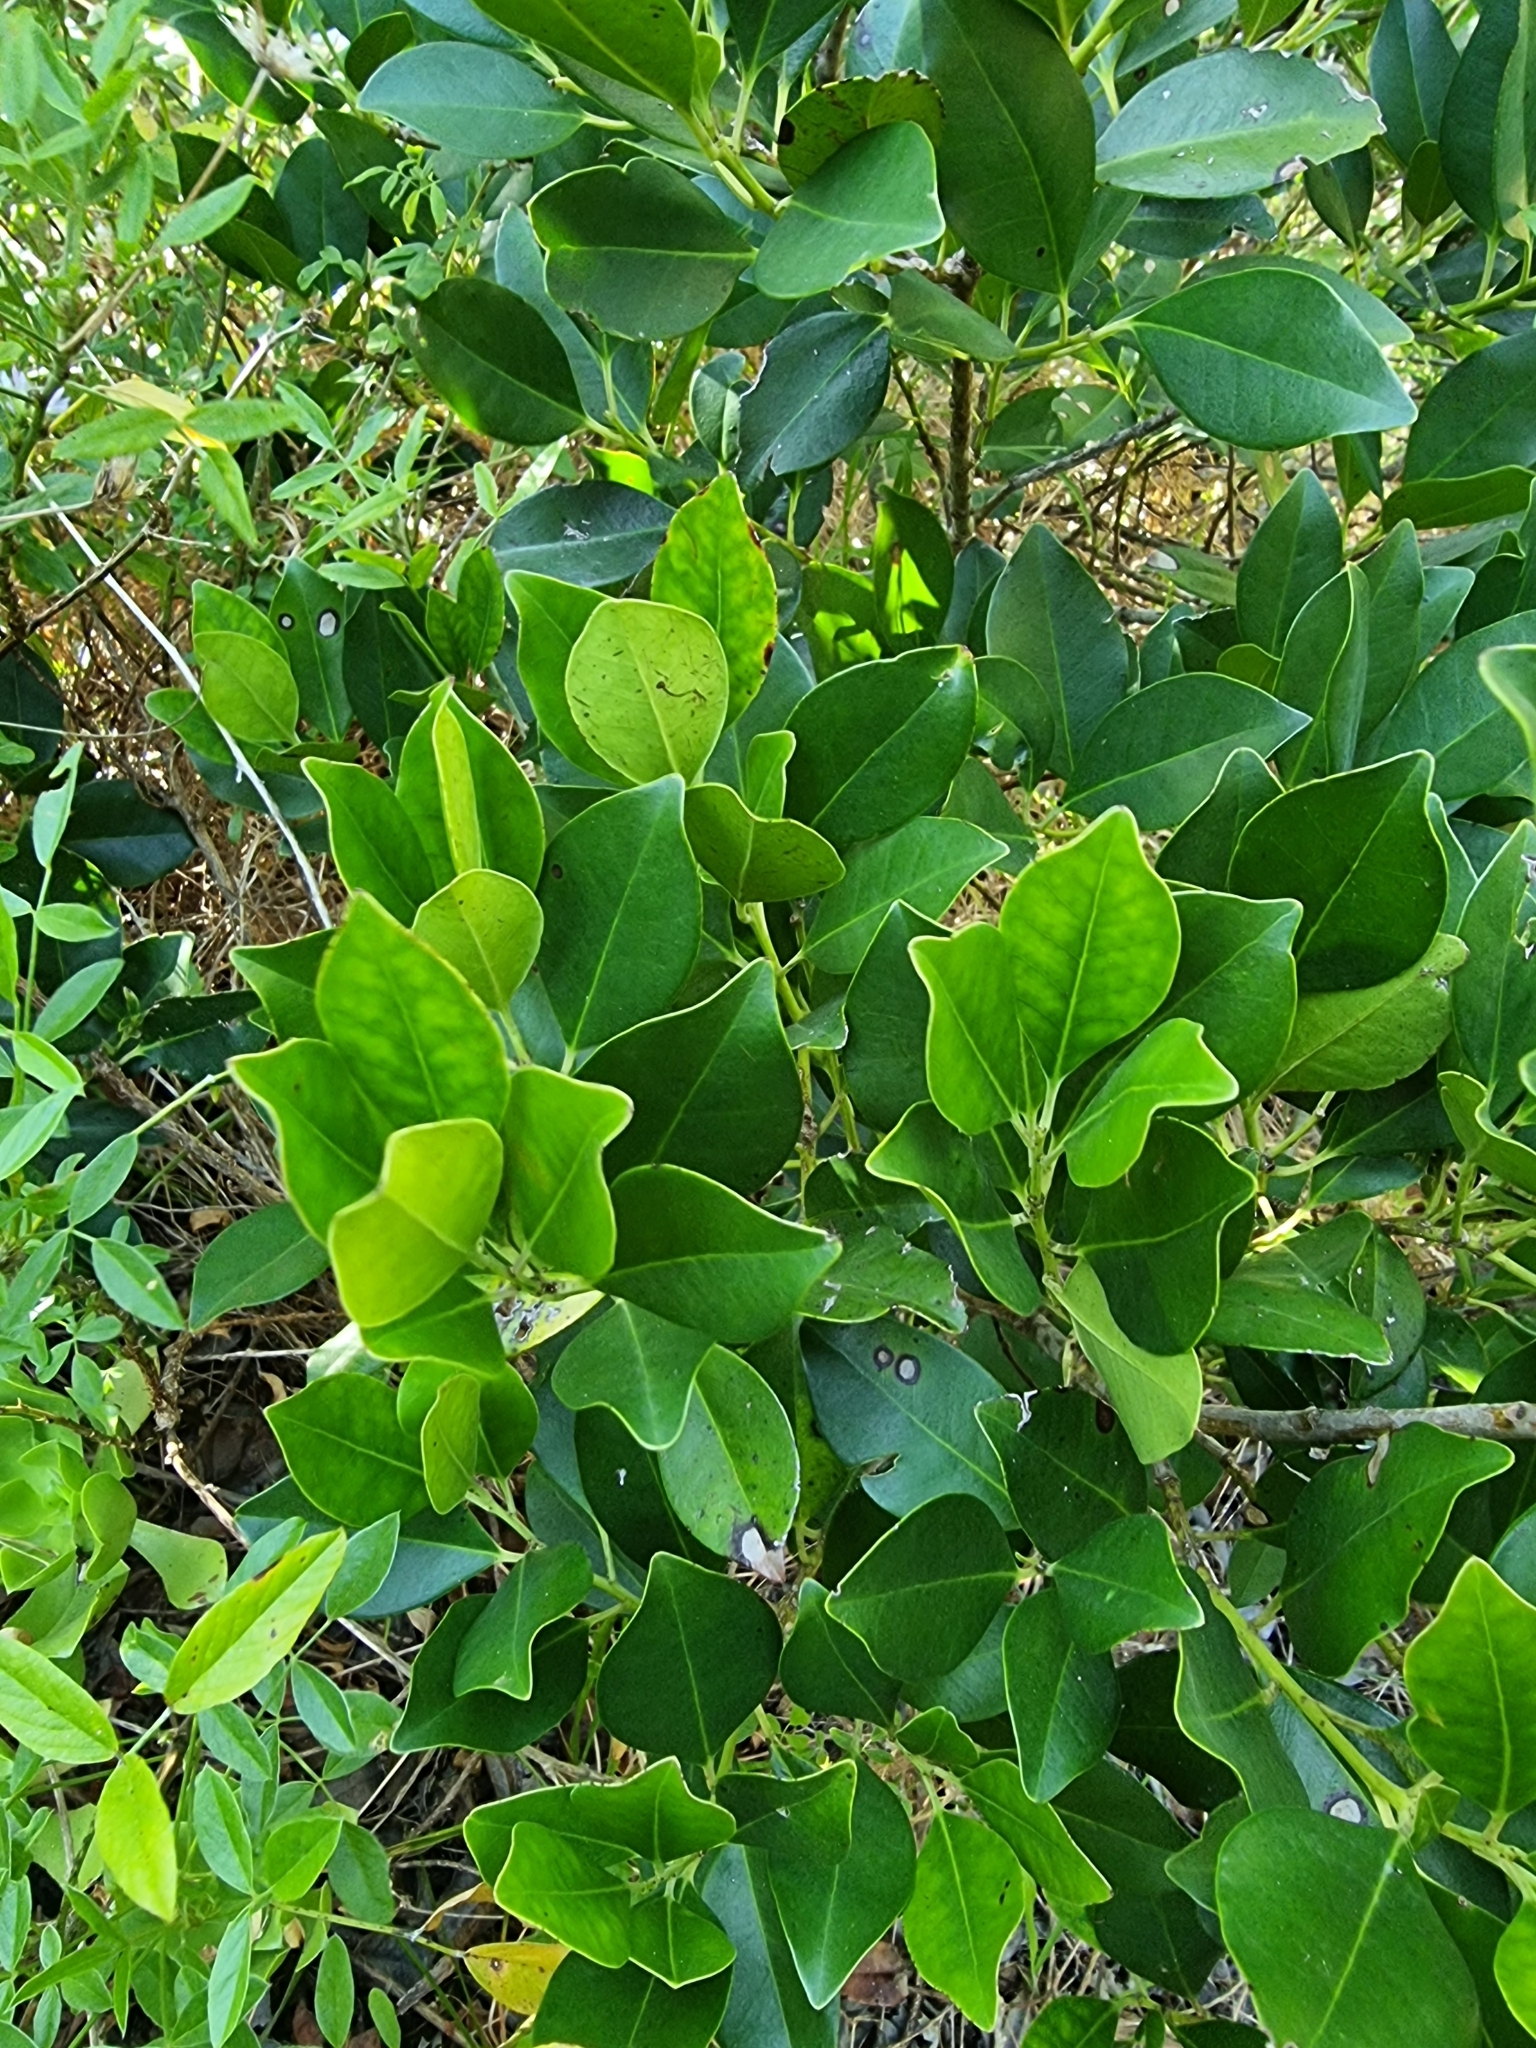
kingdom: Plantae
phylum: Tracheophyta
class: Magnoliopsida
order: Aquifoliales
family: Aquifoliaceae
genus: Ilex
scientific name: Ilex canariensis
